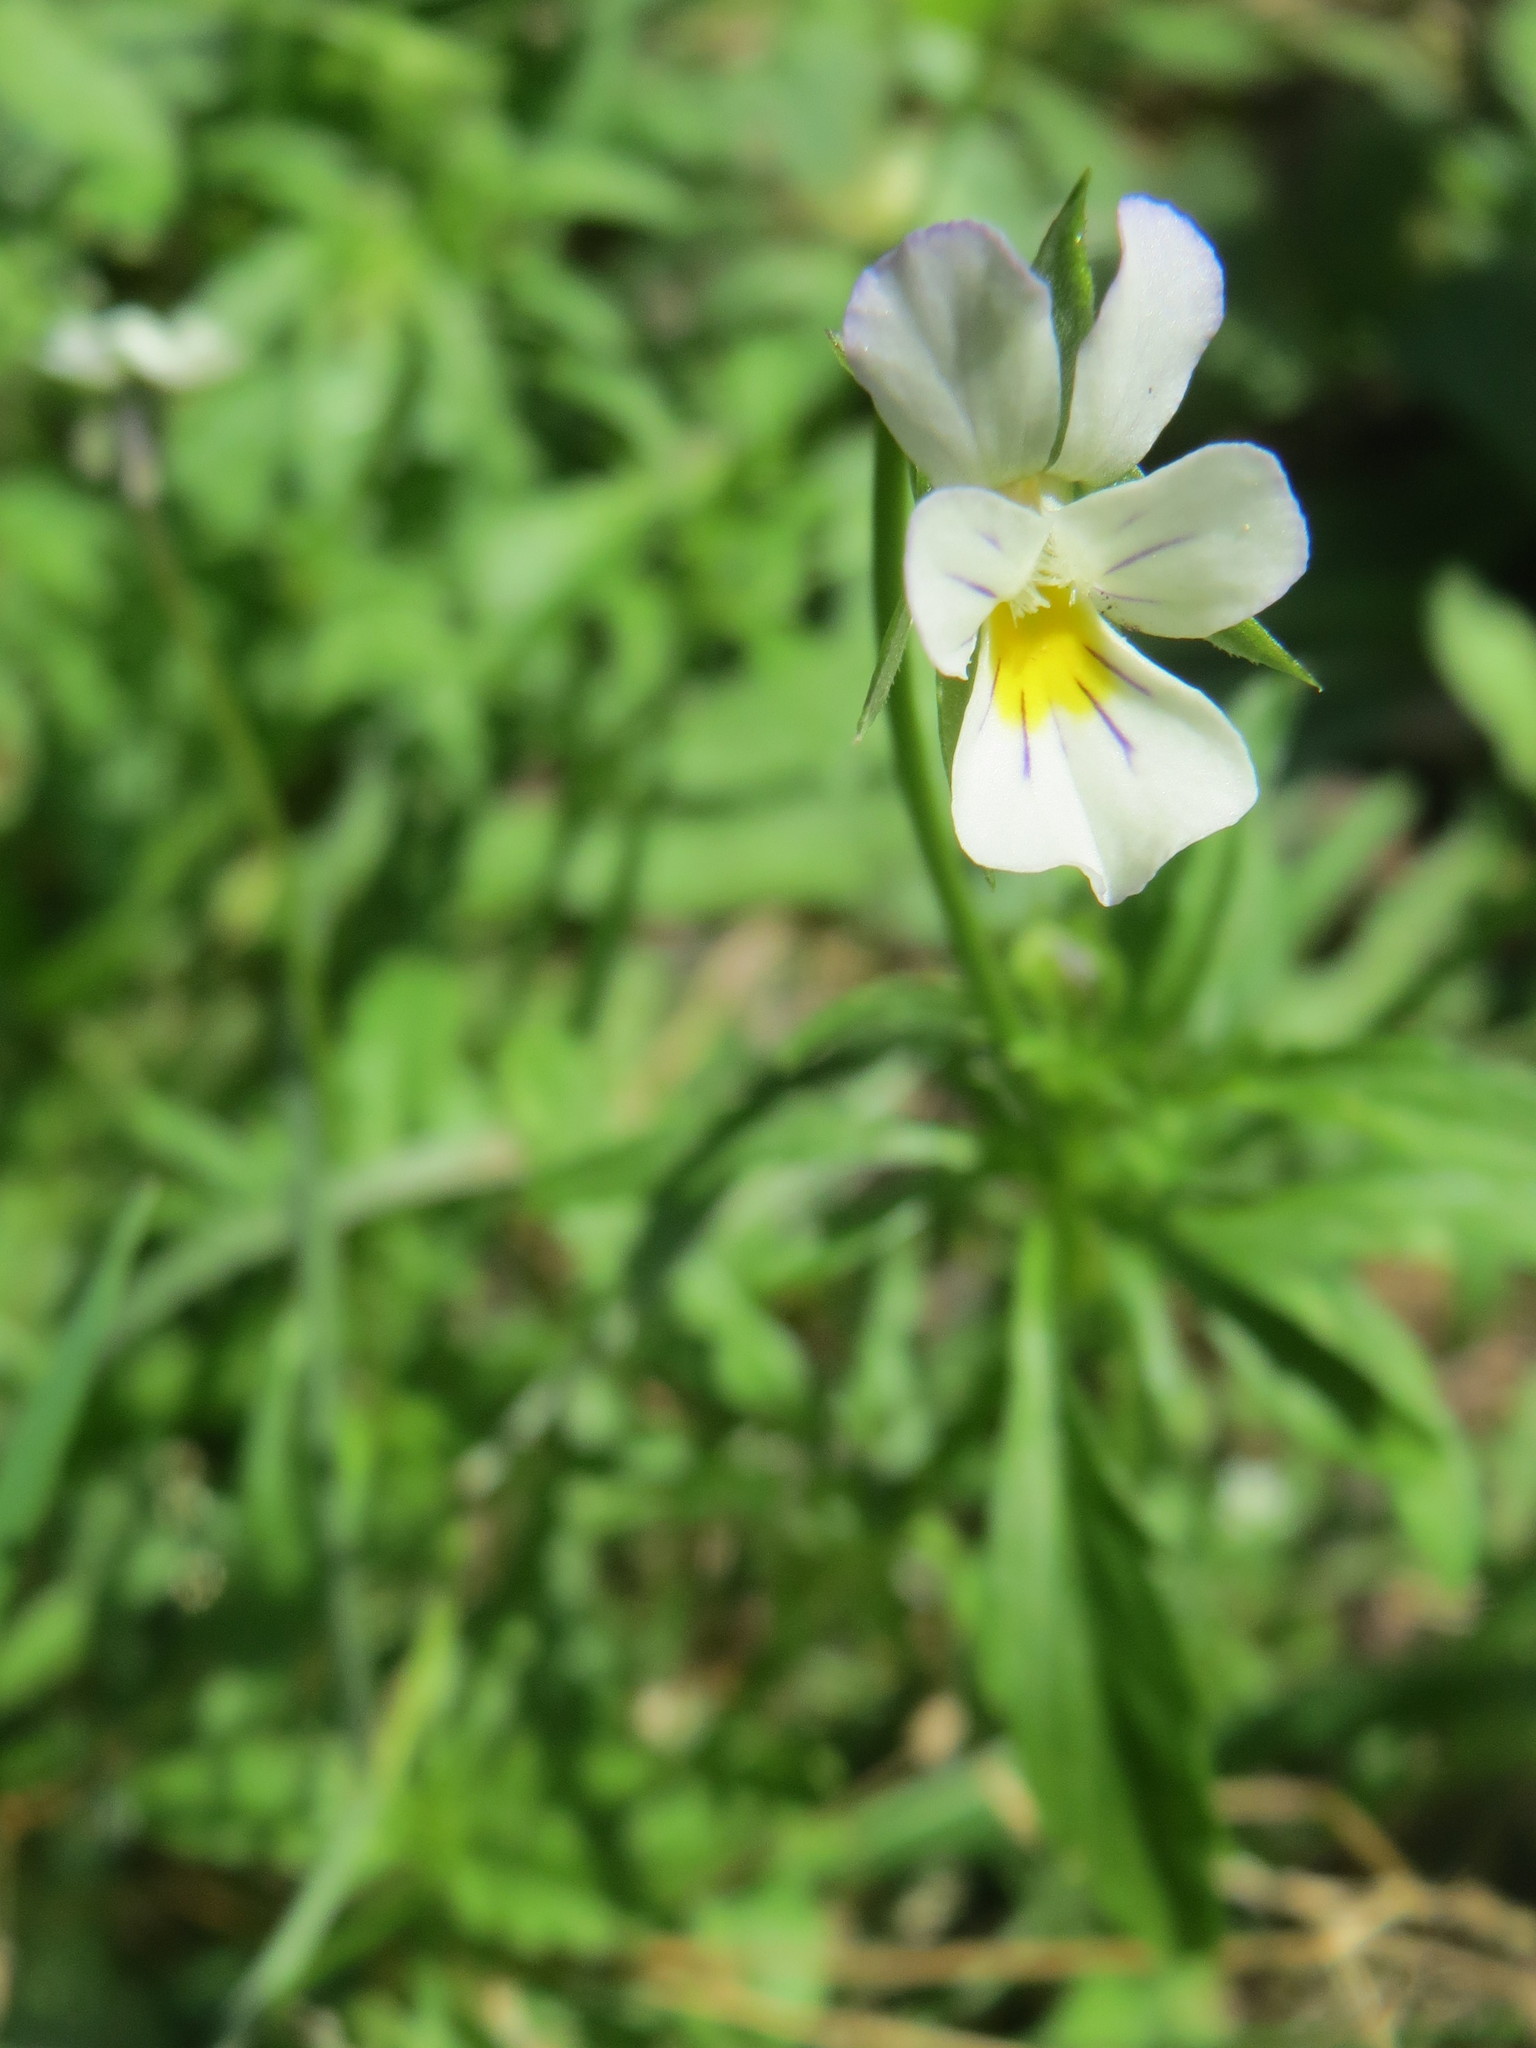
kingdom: Plantae
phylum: Tracheophyta
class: Magnoliopsida
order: Malpighiales
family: Violaceae
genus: Viola
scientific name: Viola arvensis
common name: Field pansy
